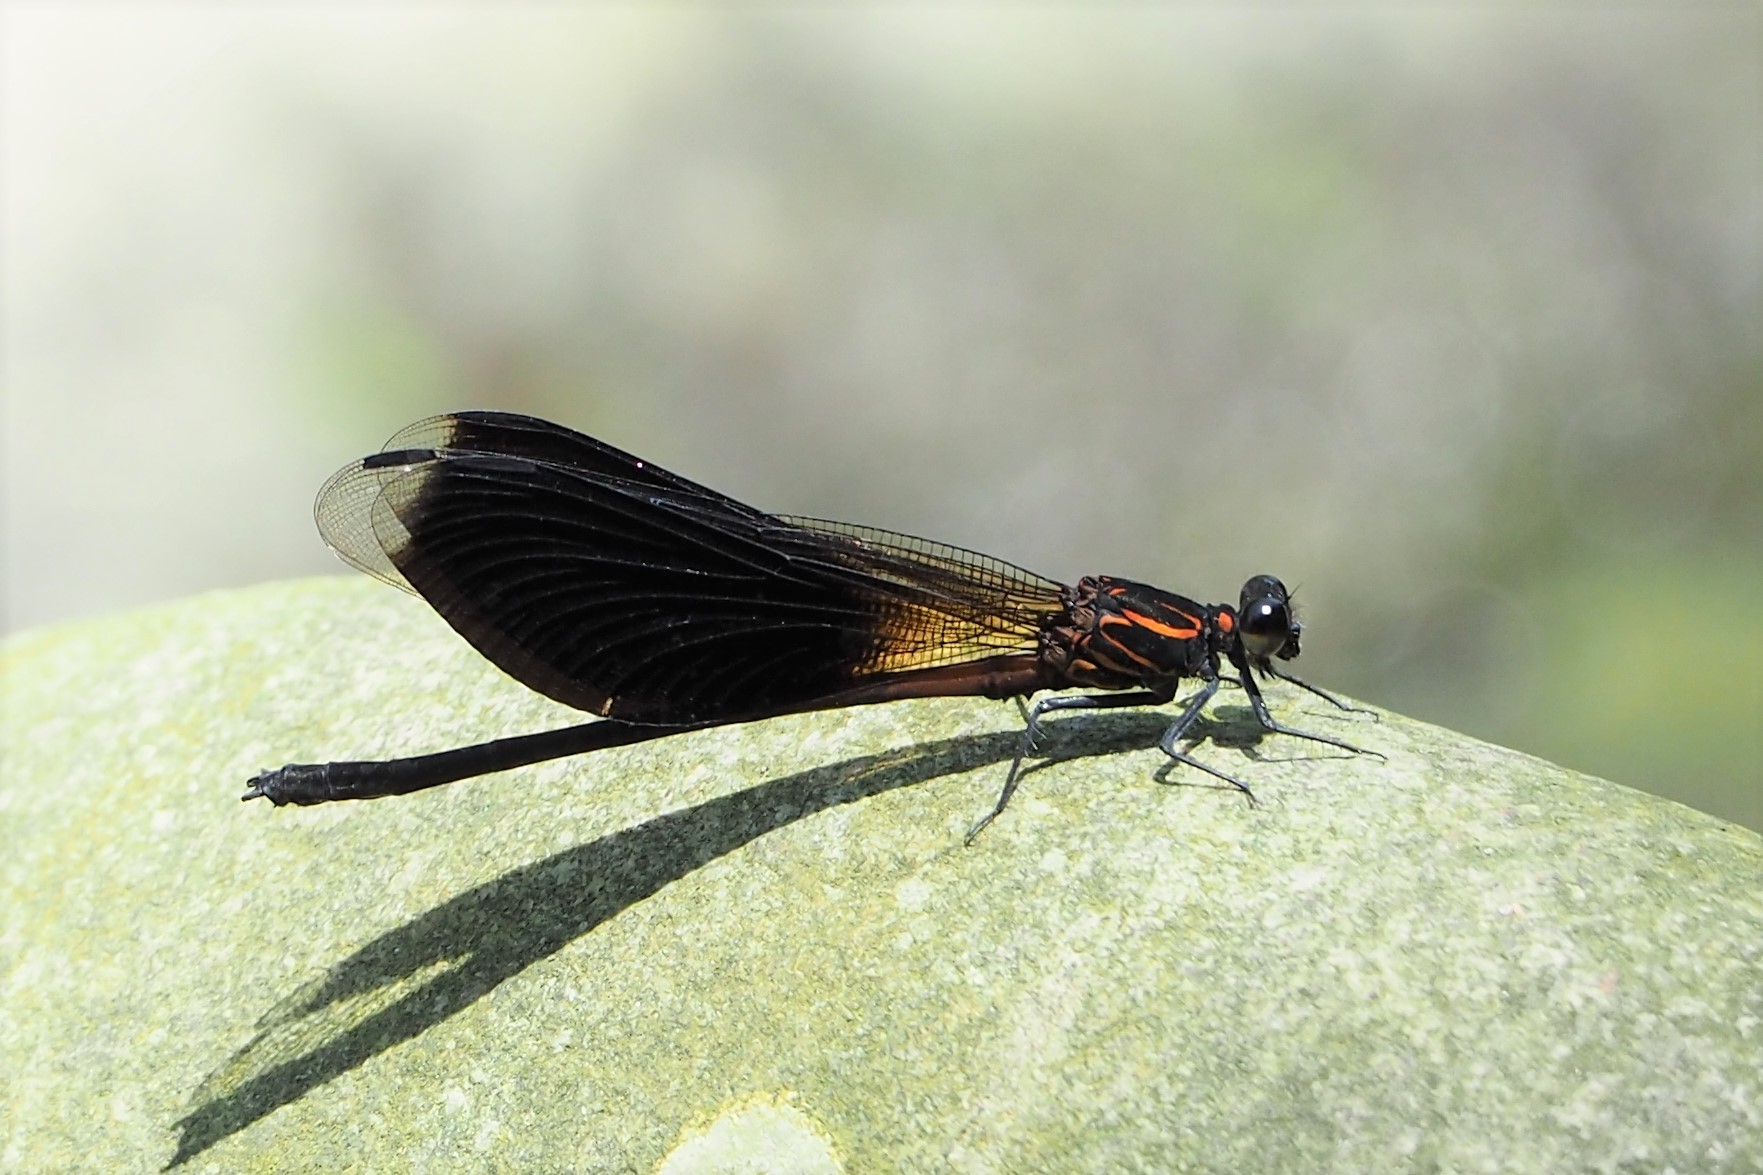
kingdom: Animalia
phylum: Arthropoda
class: Insecta
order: Odonata
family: Euphaeidae
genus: Euphaea
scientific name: Euphaea formosa
